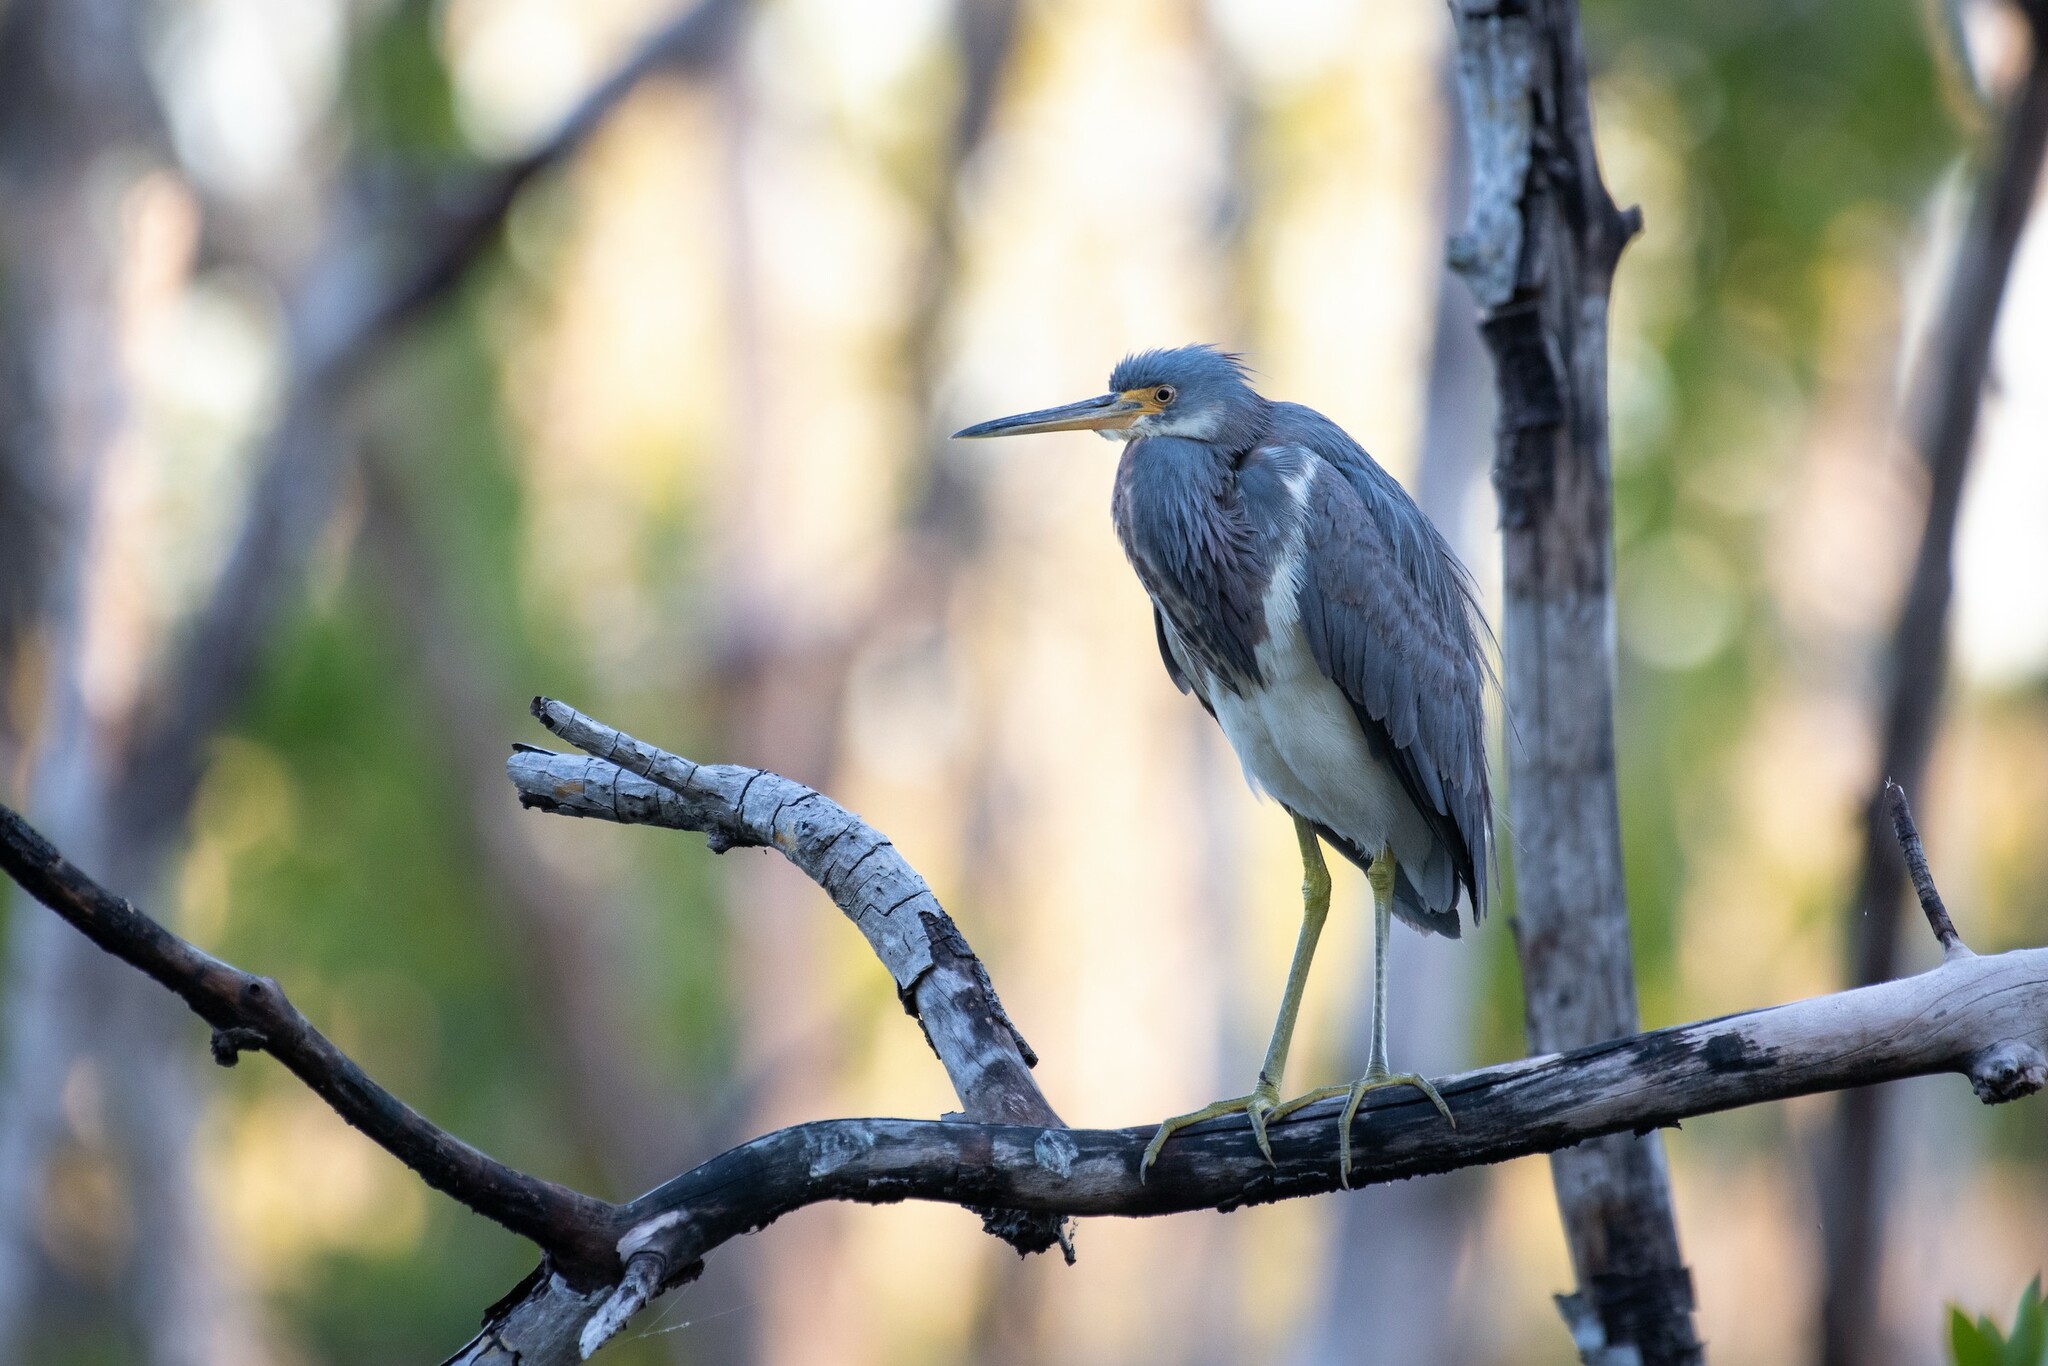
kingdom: Animalia
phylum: Chordata
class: Aves
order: Pelecaniformes
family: Ardeidae
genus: Egretta
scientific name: Egretta tricolor
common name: Tricolored heron
